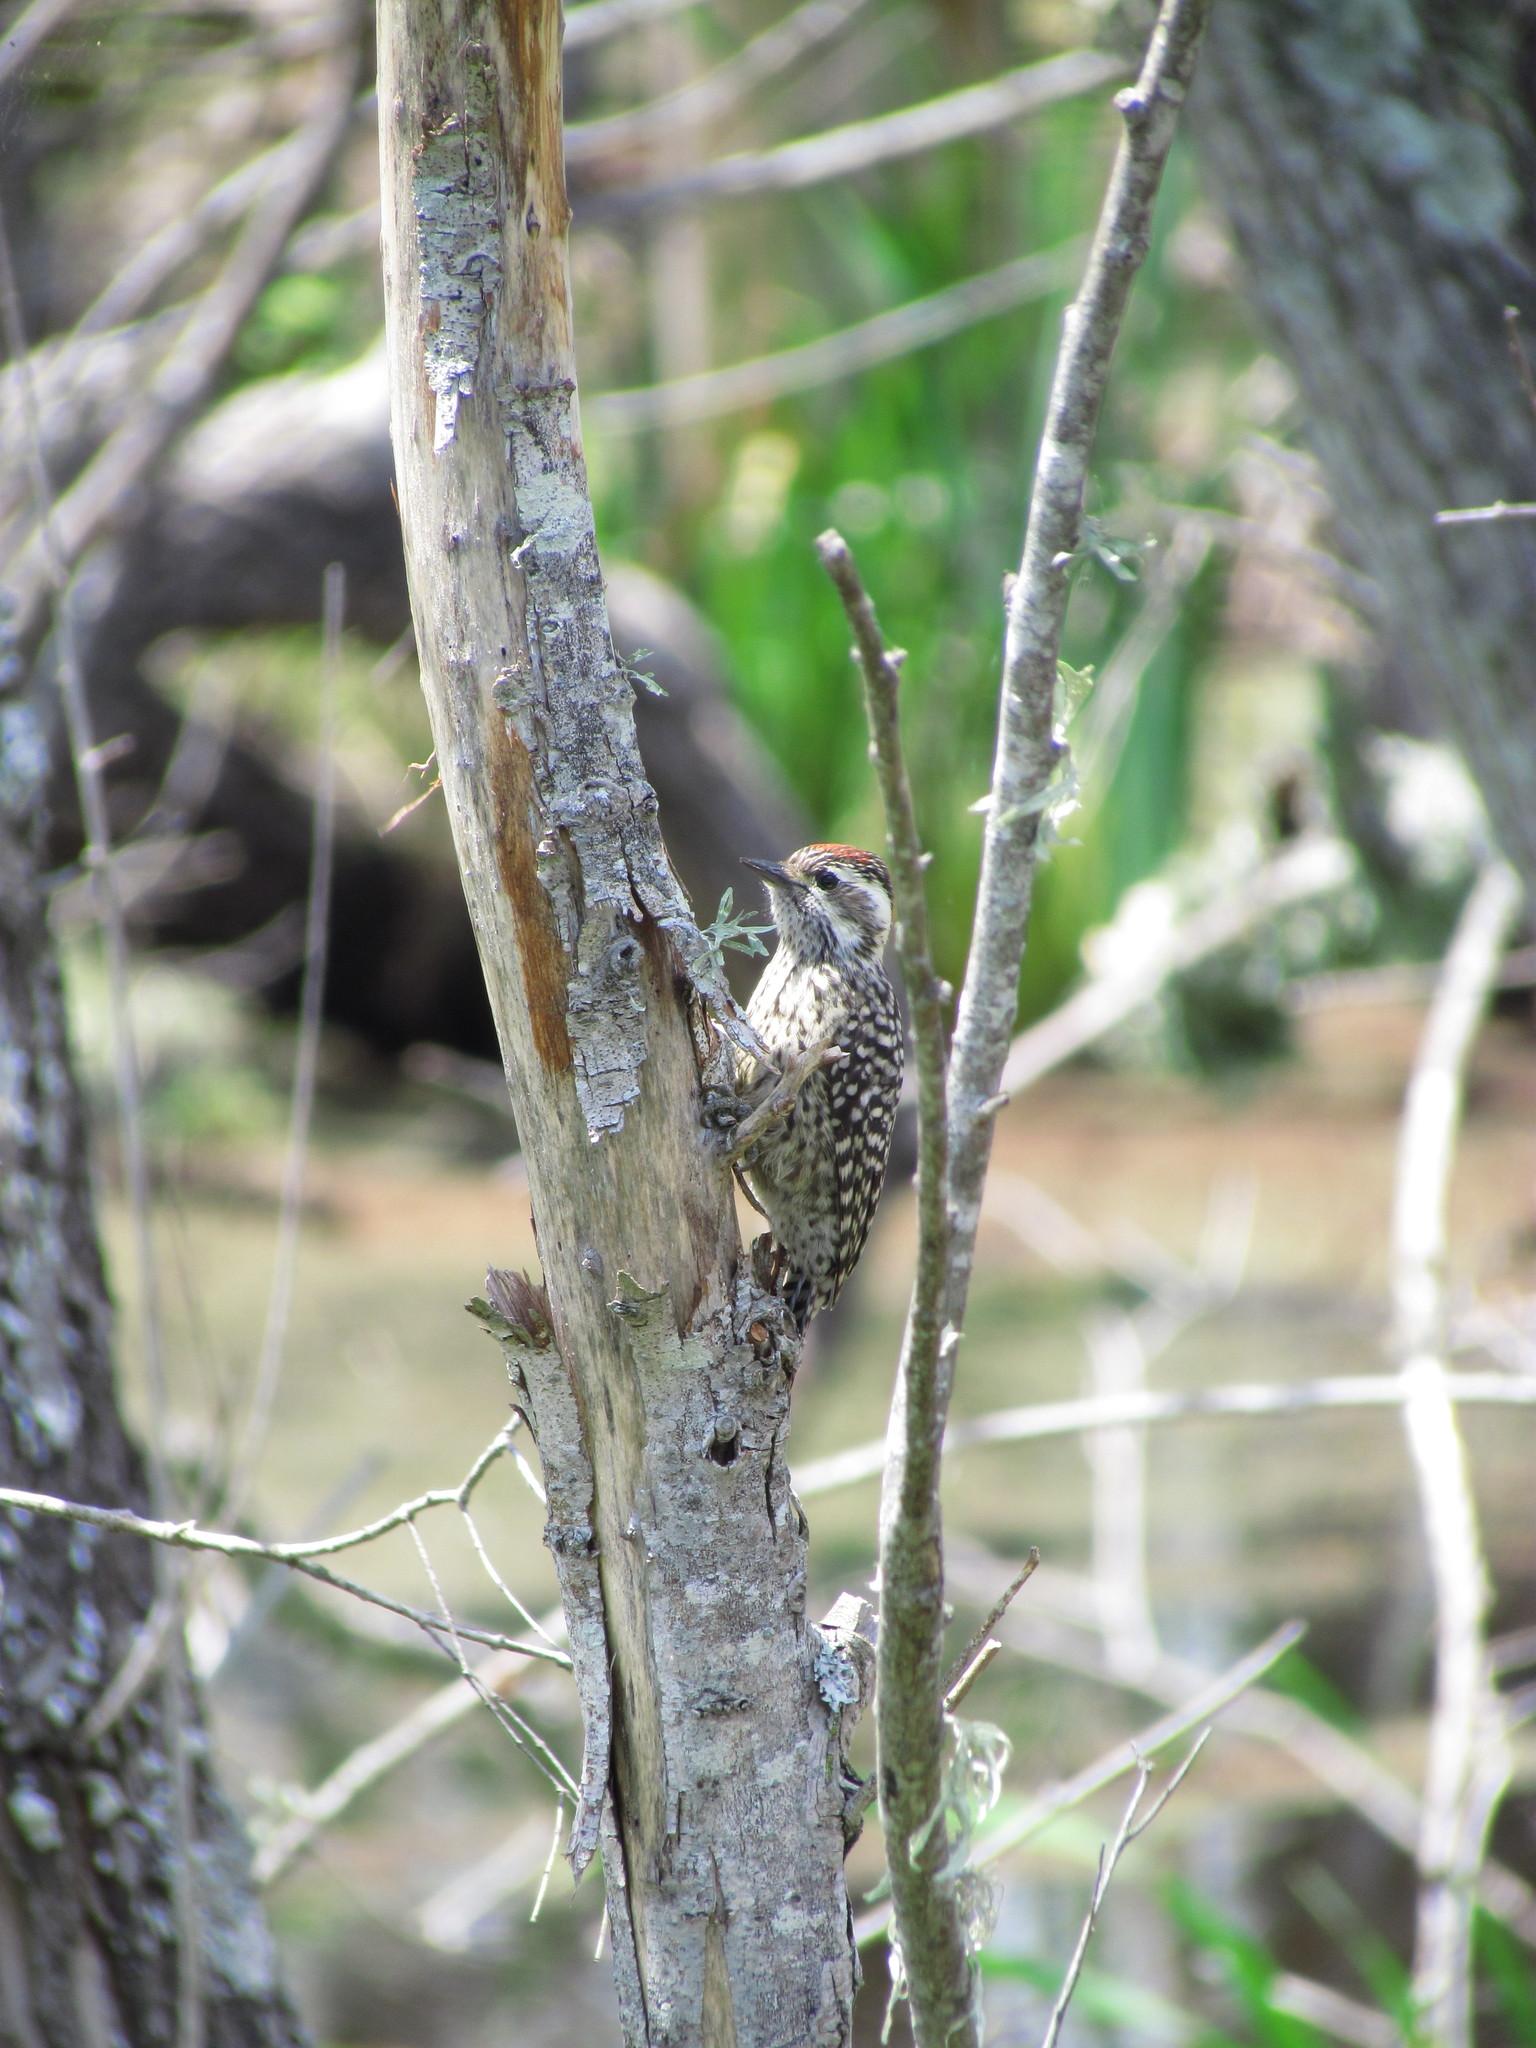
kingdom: Animalia
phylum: Chordata
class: Aves
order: Piciformes
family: Picidae
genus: Veniliornis
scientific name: Veniliornis mixtus
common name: Checkered woodpecker
